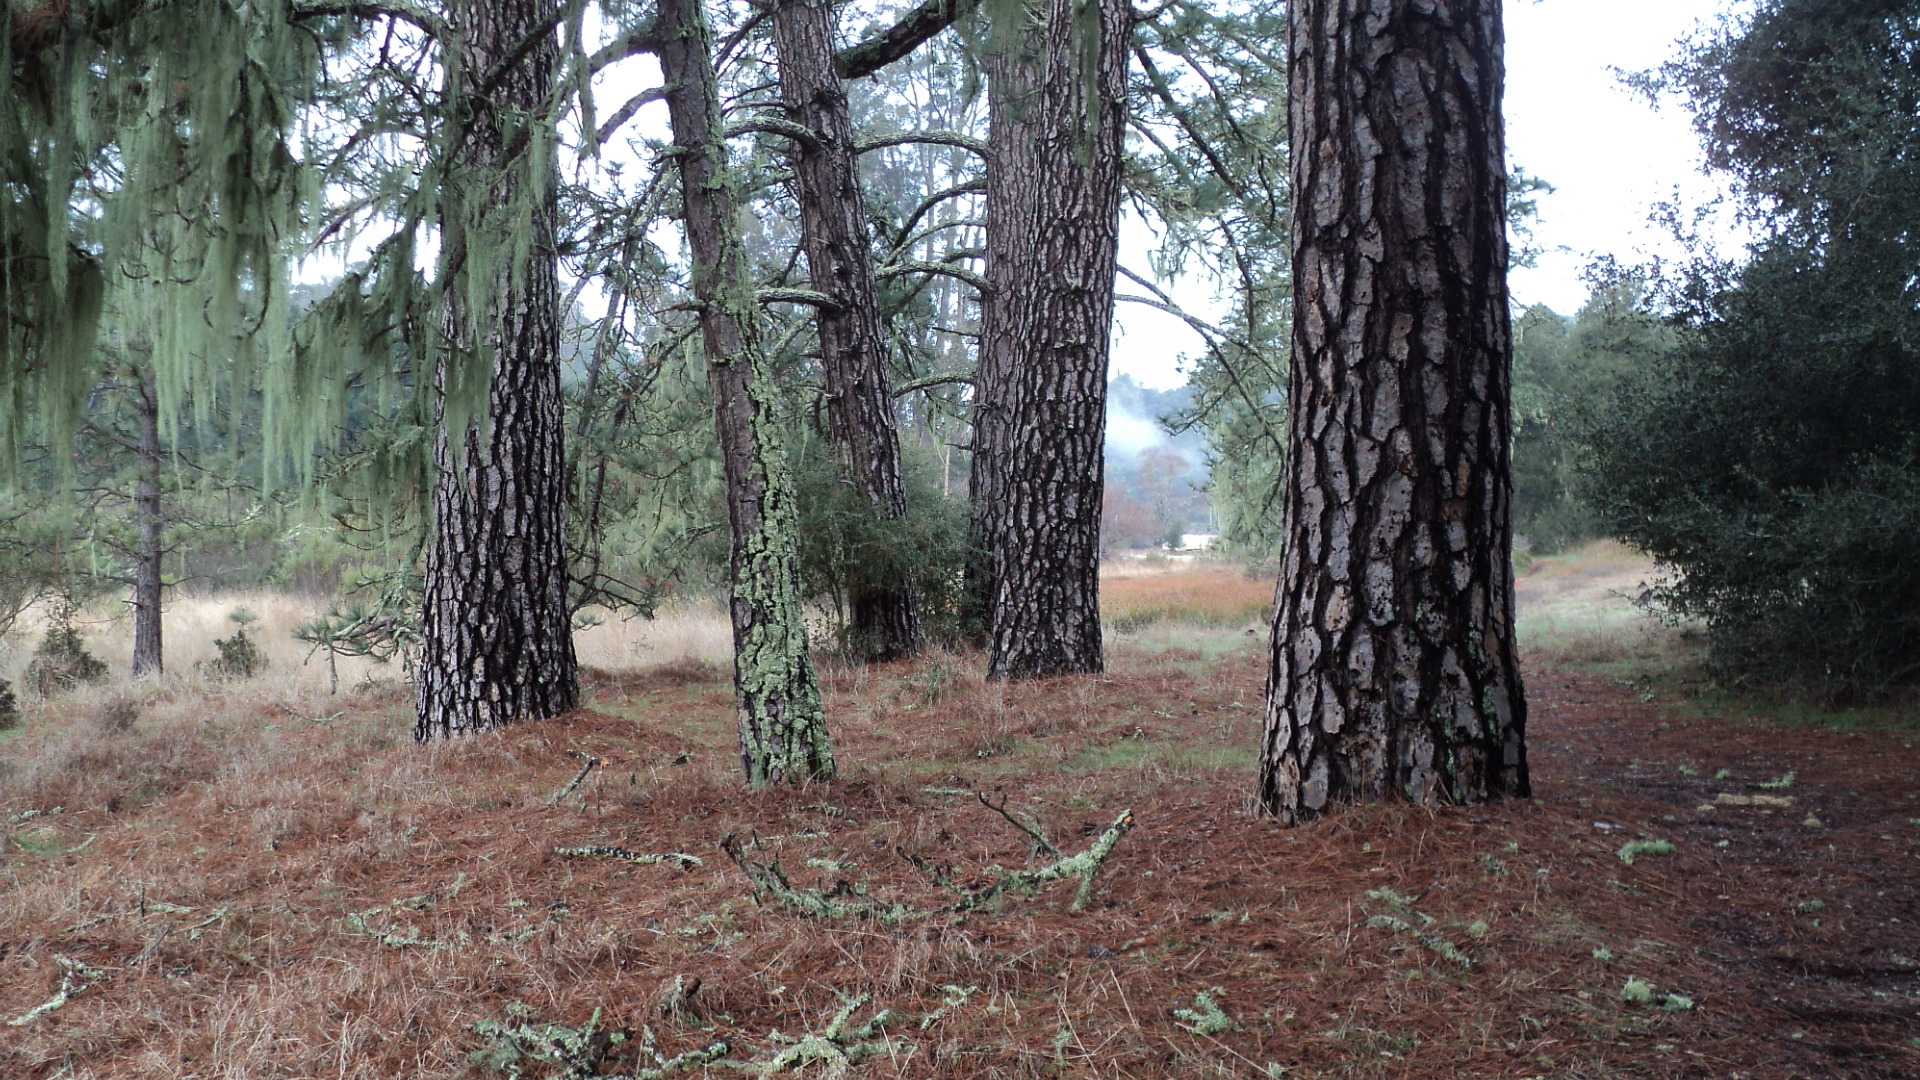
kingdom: Plantae
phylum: Tracheophyta
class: Pinopsida
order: Pinales
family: Pinaceae
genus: Pinus
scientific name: Pinus ponderosa
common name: Western yellow-pine
